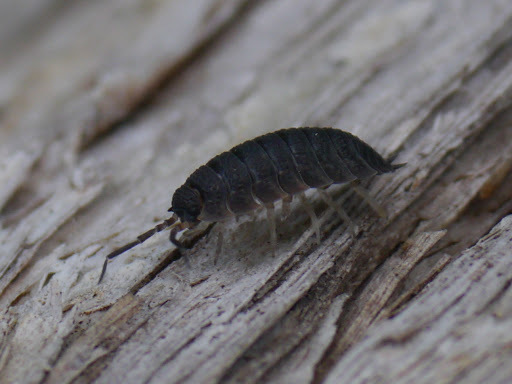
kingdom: Animalia
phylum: Arthropoda
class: Malacostraca
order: Isopoda
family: Porcellionidae
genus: Porcellio
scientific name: Porcellio scaber
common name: Common rough woodlouse
